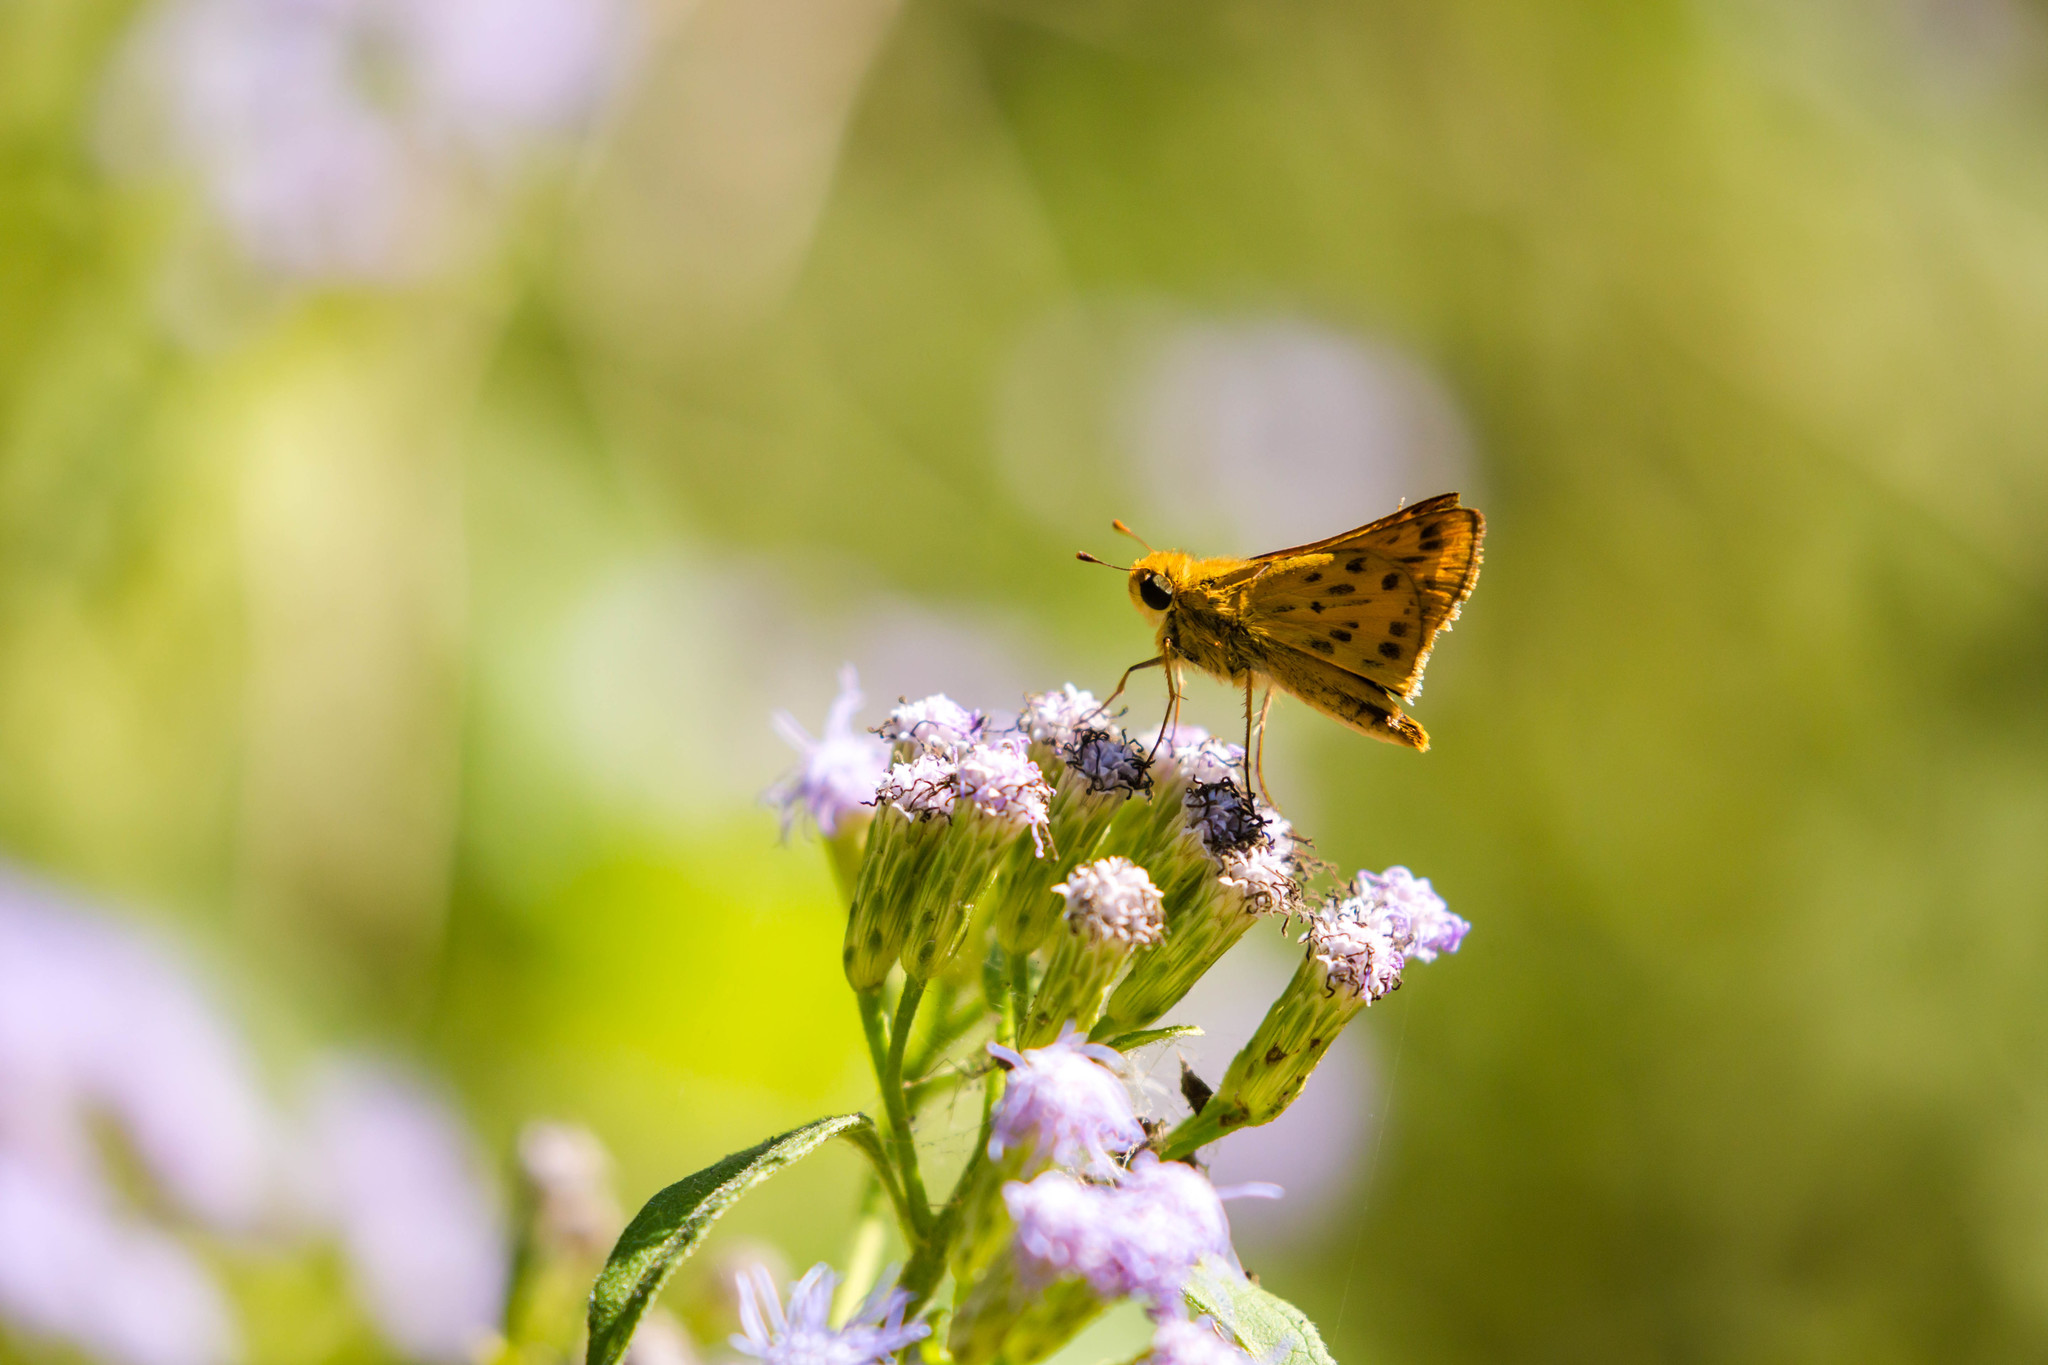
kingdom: Animalia
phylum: Arthropoda
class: Insecta
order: Lepidoptera
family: Hesperiidae
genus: Hylephila
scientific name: Hylephila phyleus
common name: Fiery skipper
